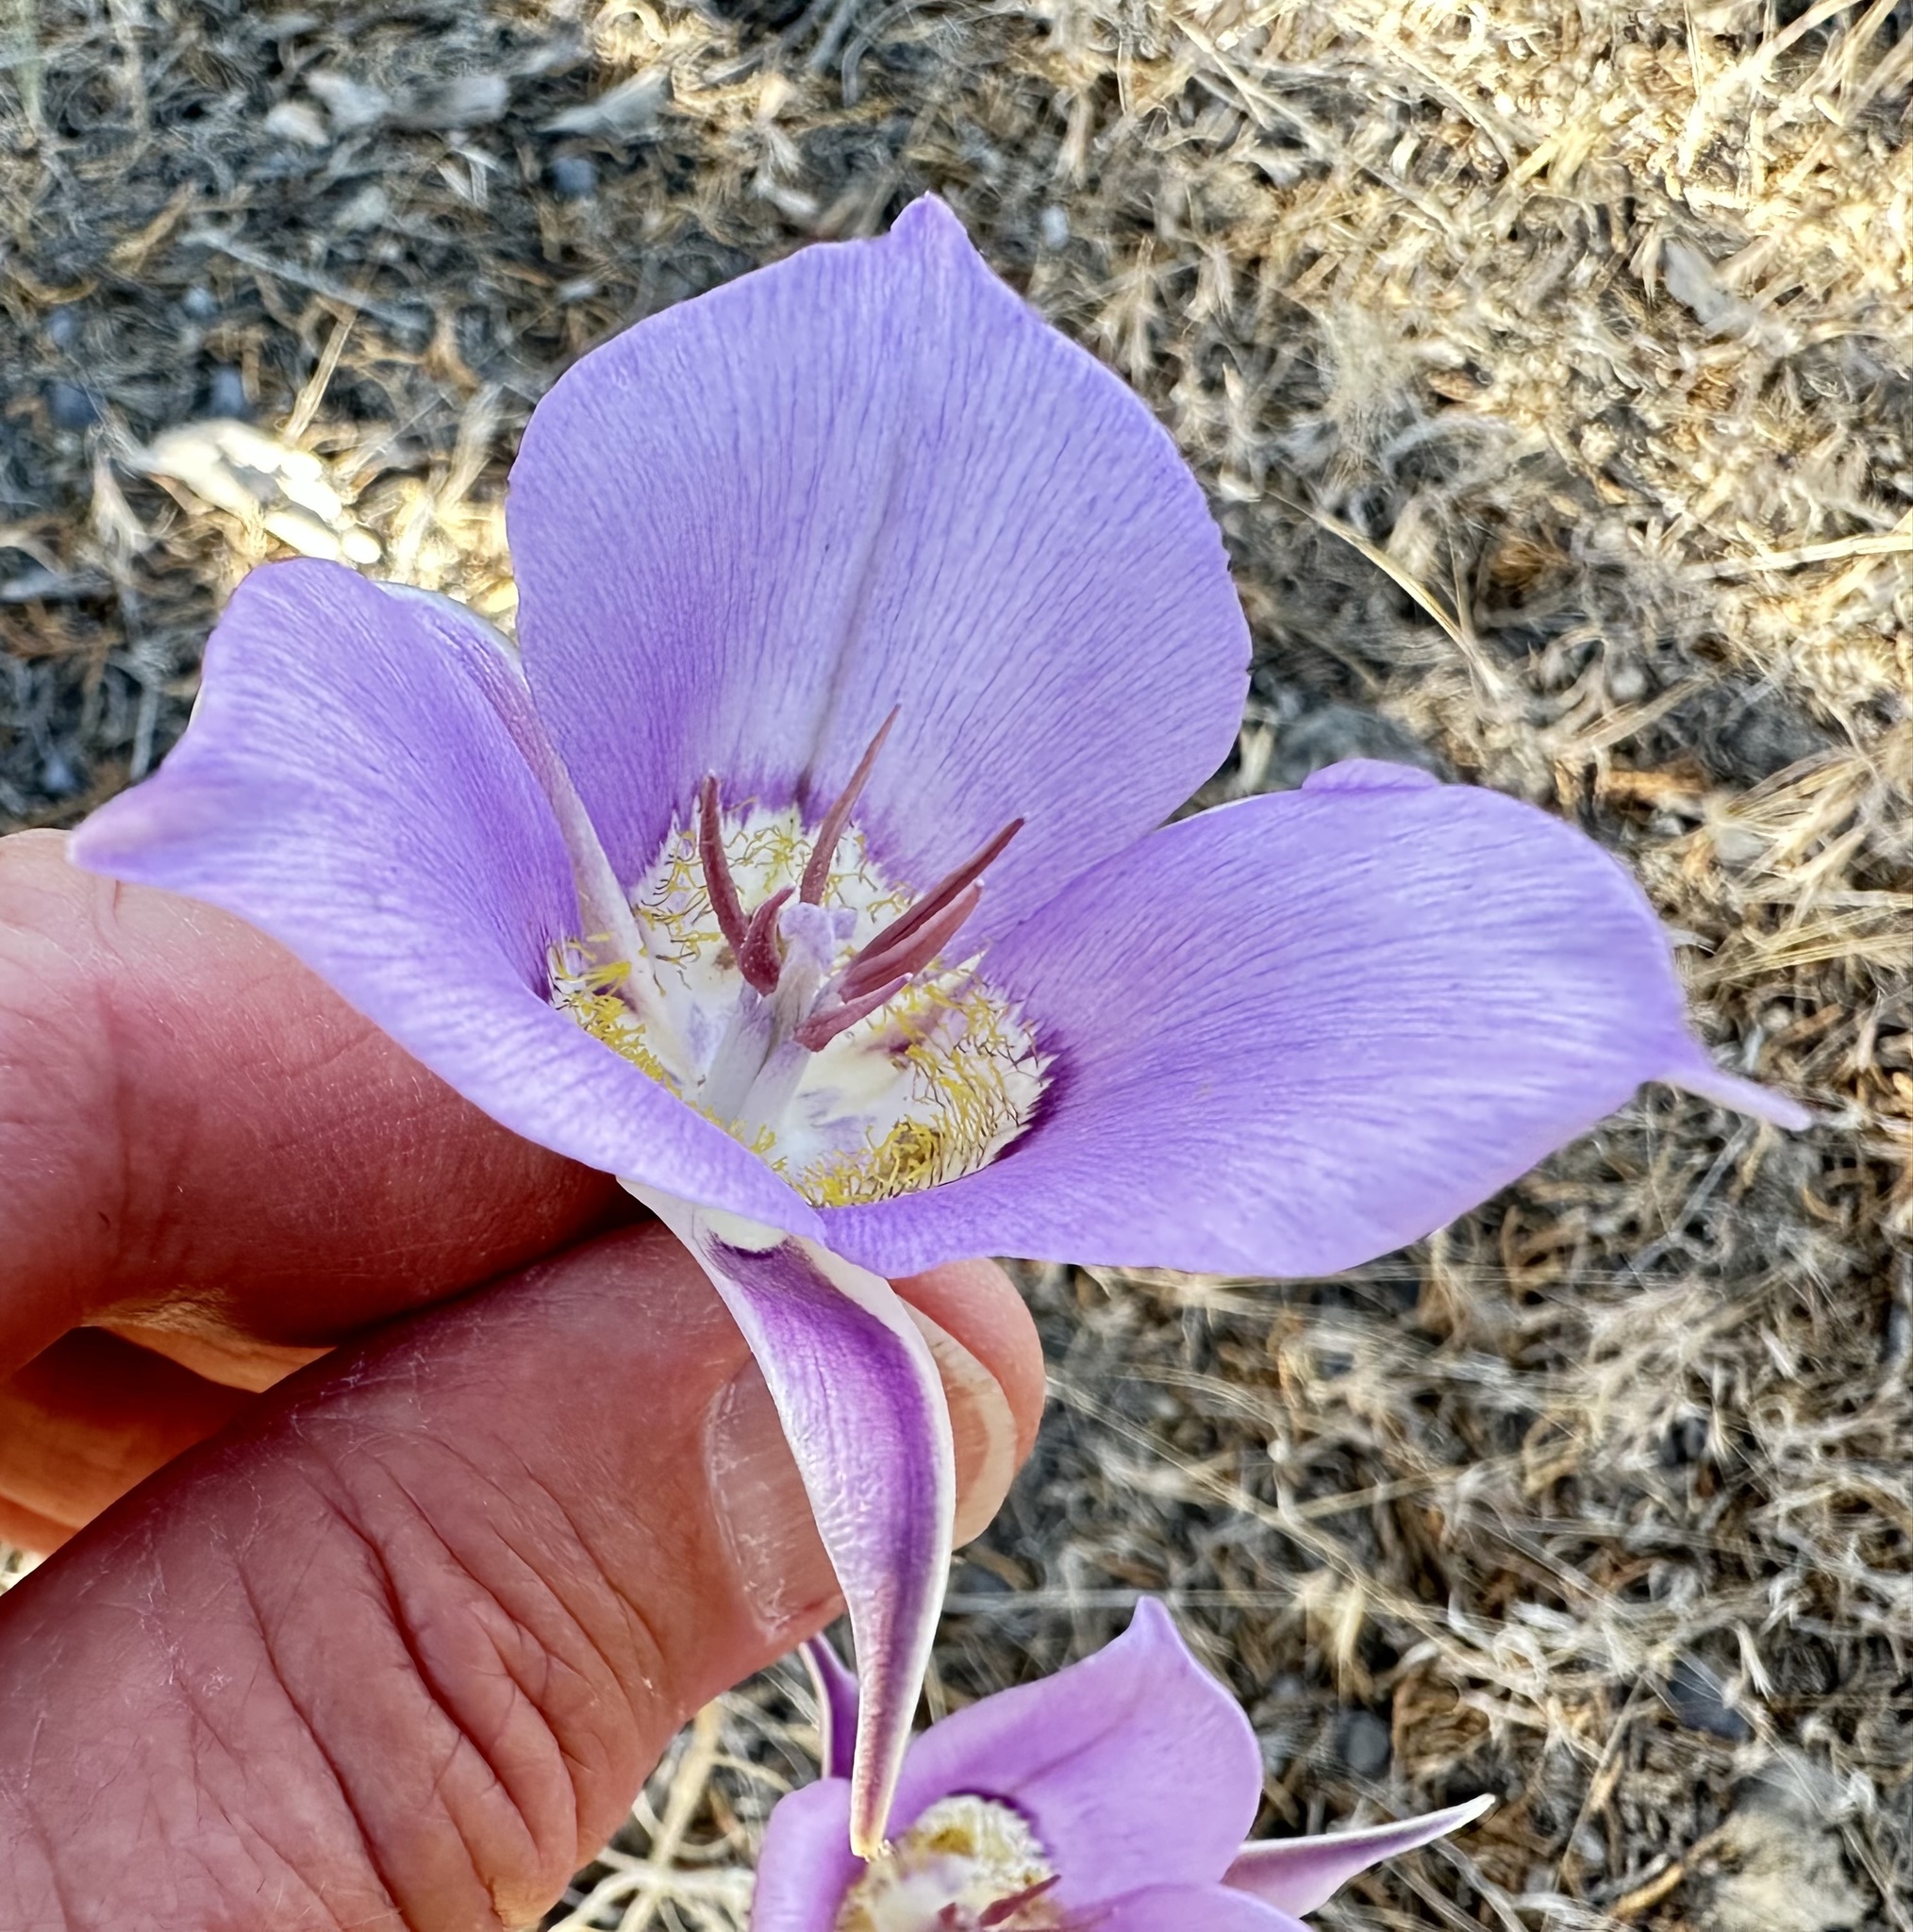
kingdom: Plantae
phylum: Tracheophyta
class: Liliopsida
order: Liliales
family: Liliaceae
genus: Calochortus
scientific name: Calochortus macrocarpus
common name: Green-band mariposa lily
